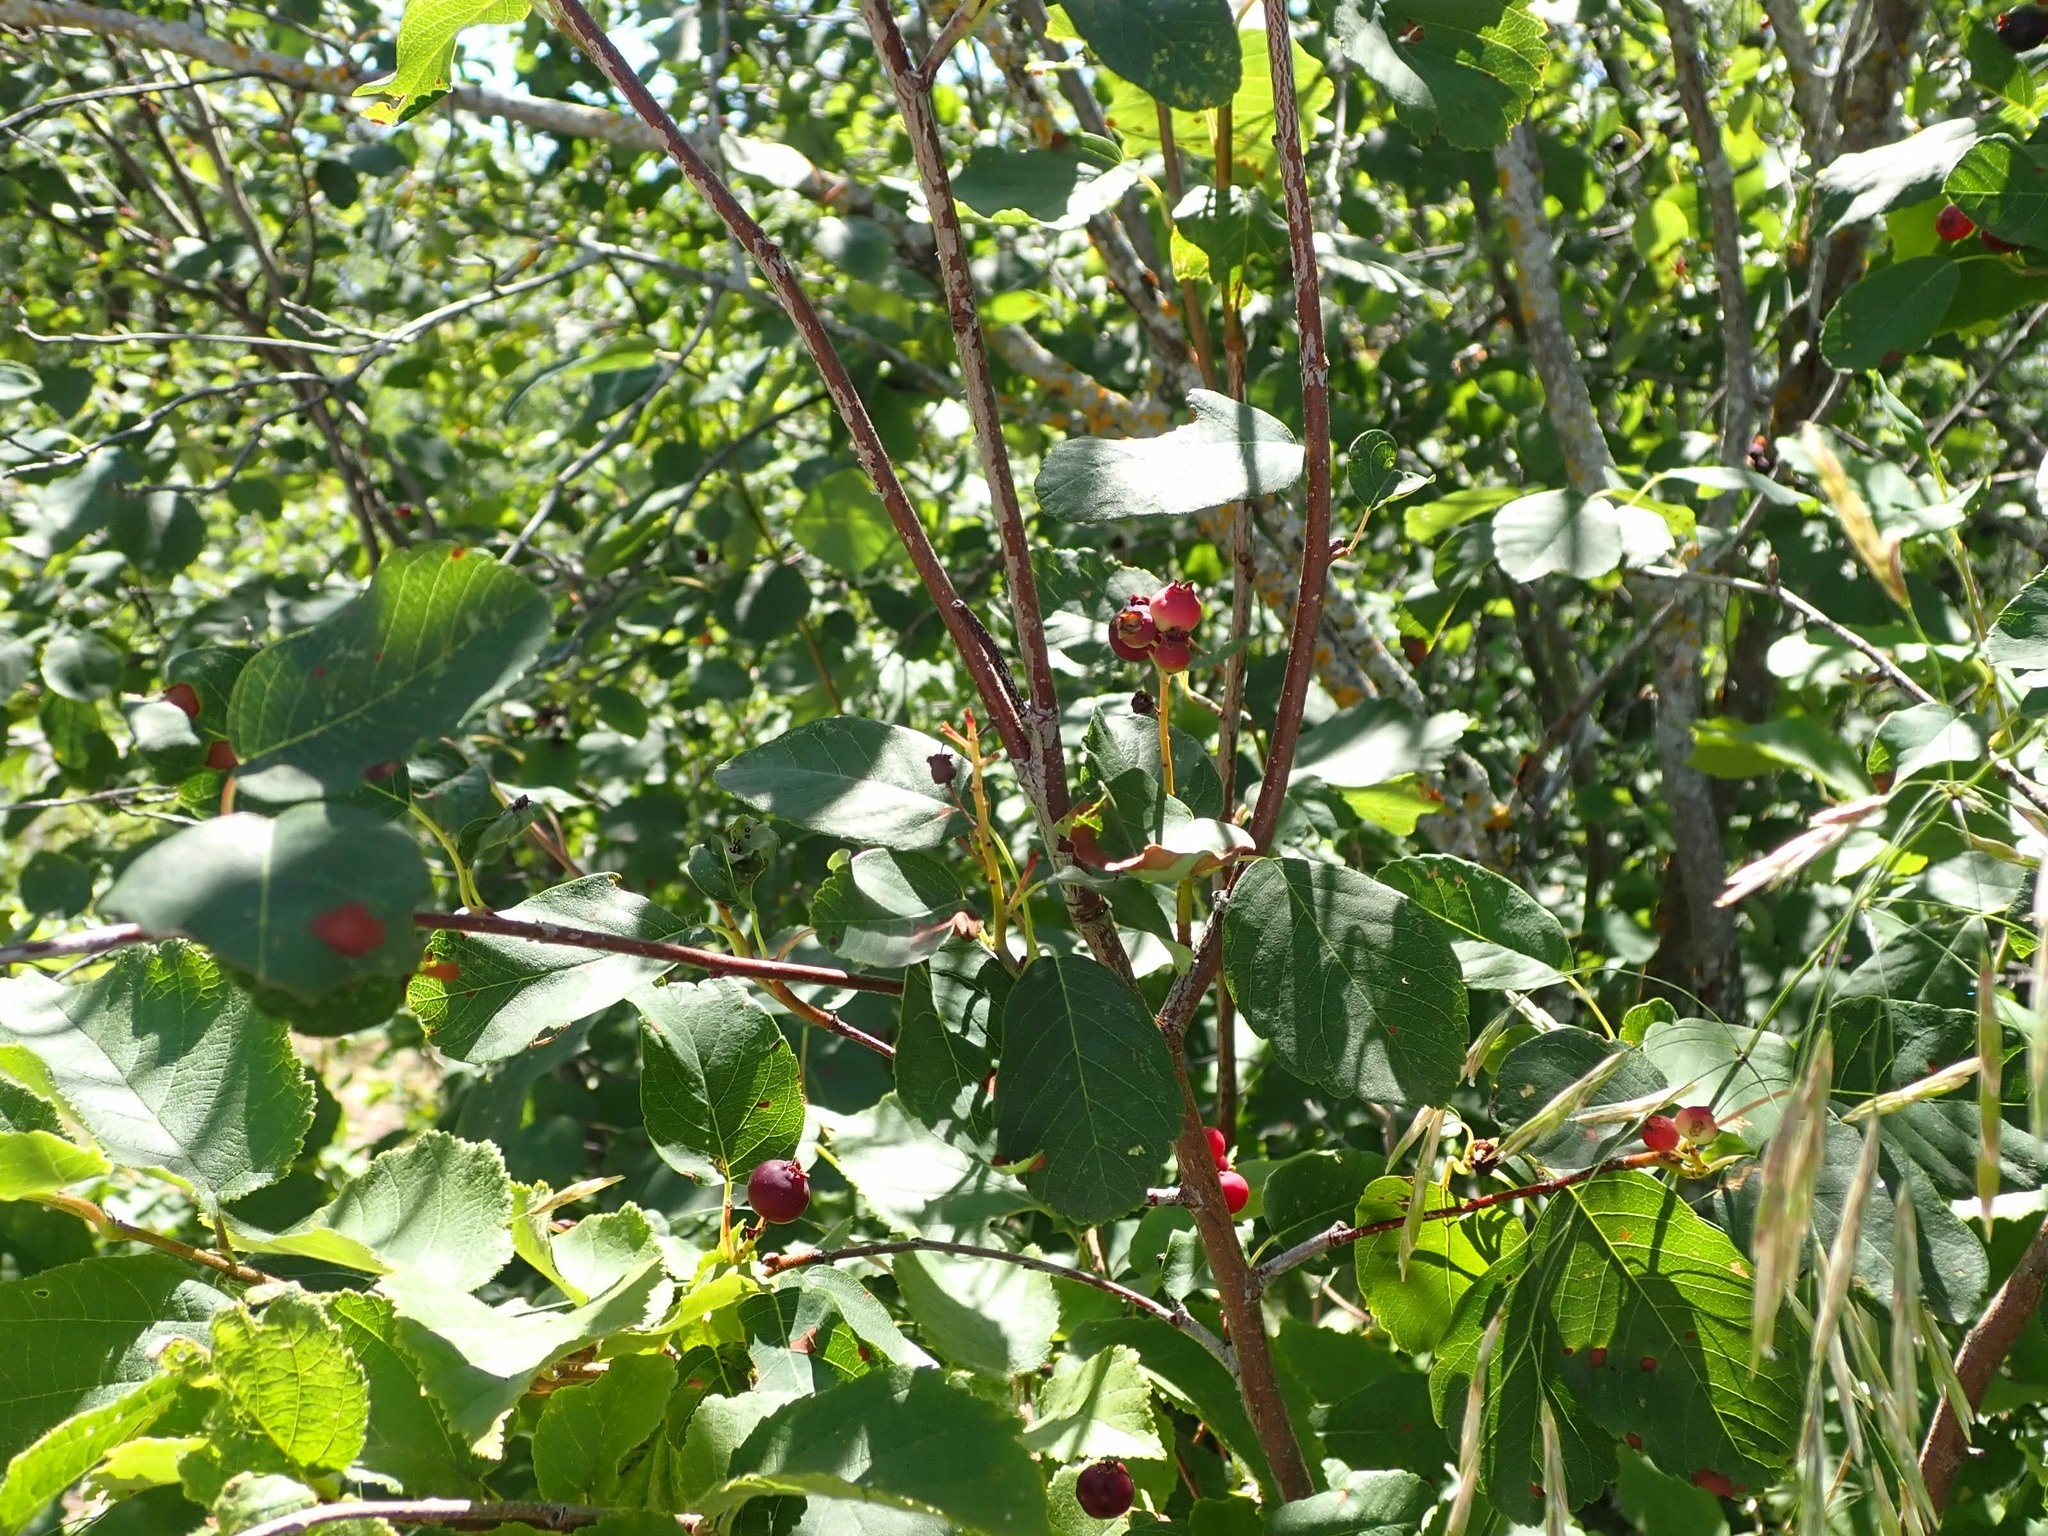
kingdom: Plantae
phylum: Tracheophyta
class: Magnoliopsida
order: Rosales
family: Rosaceae
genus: Amelanchier
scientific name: Amelanchier alnifolia
